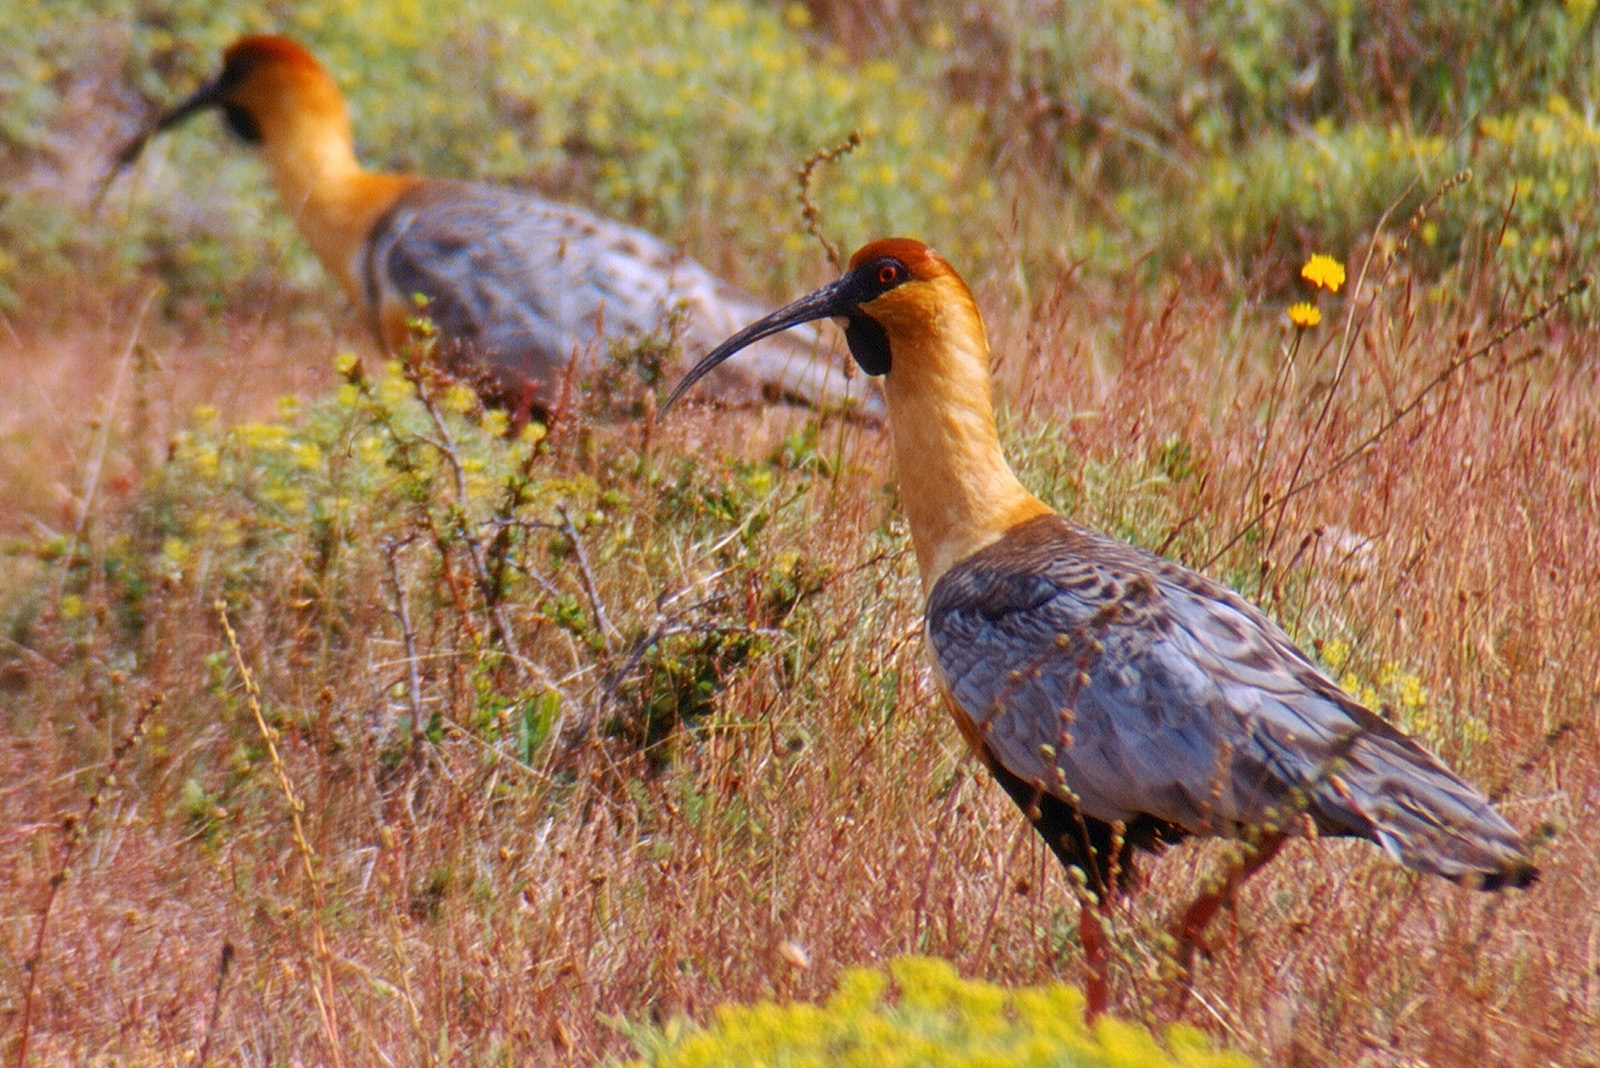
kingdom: Animalia
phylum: Chordata
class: Aves
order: Pelecaniformes
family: Threskiornithidae
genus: Theristicus
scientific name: Theristicus melanopis
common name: Black-faced ibis
